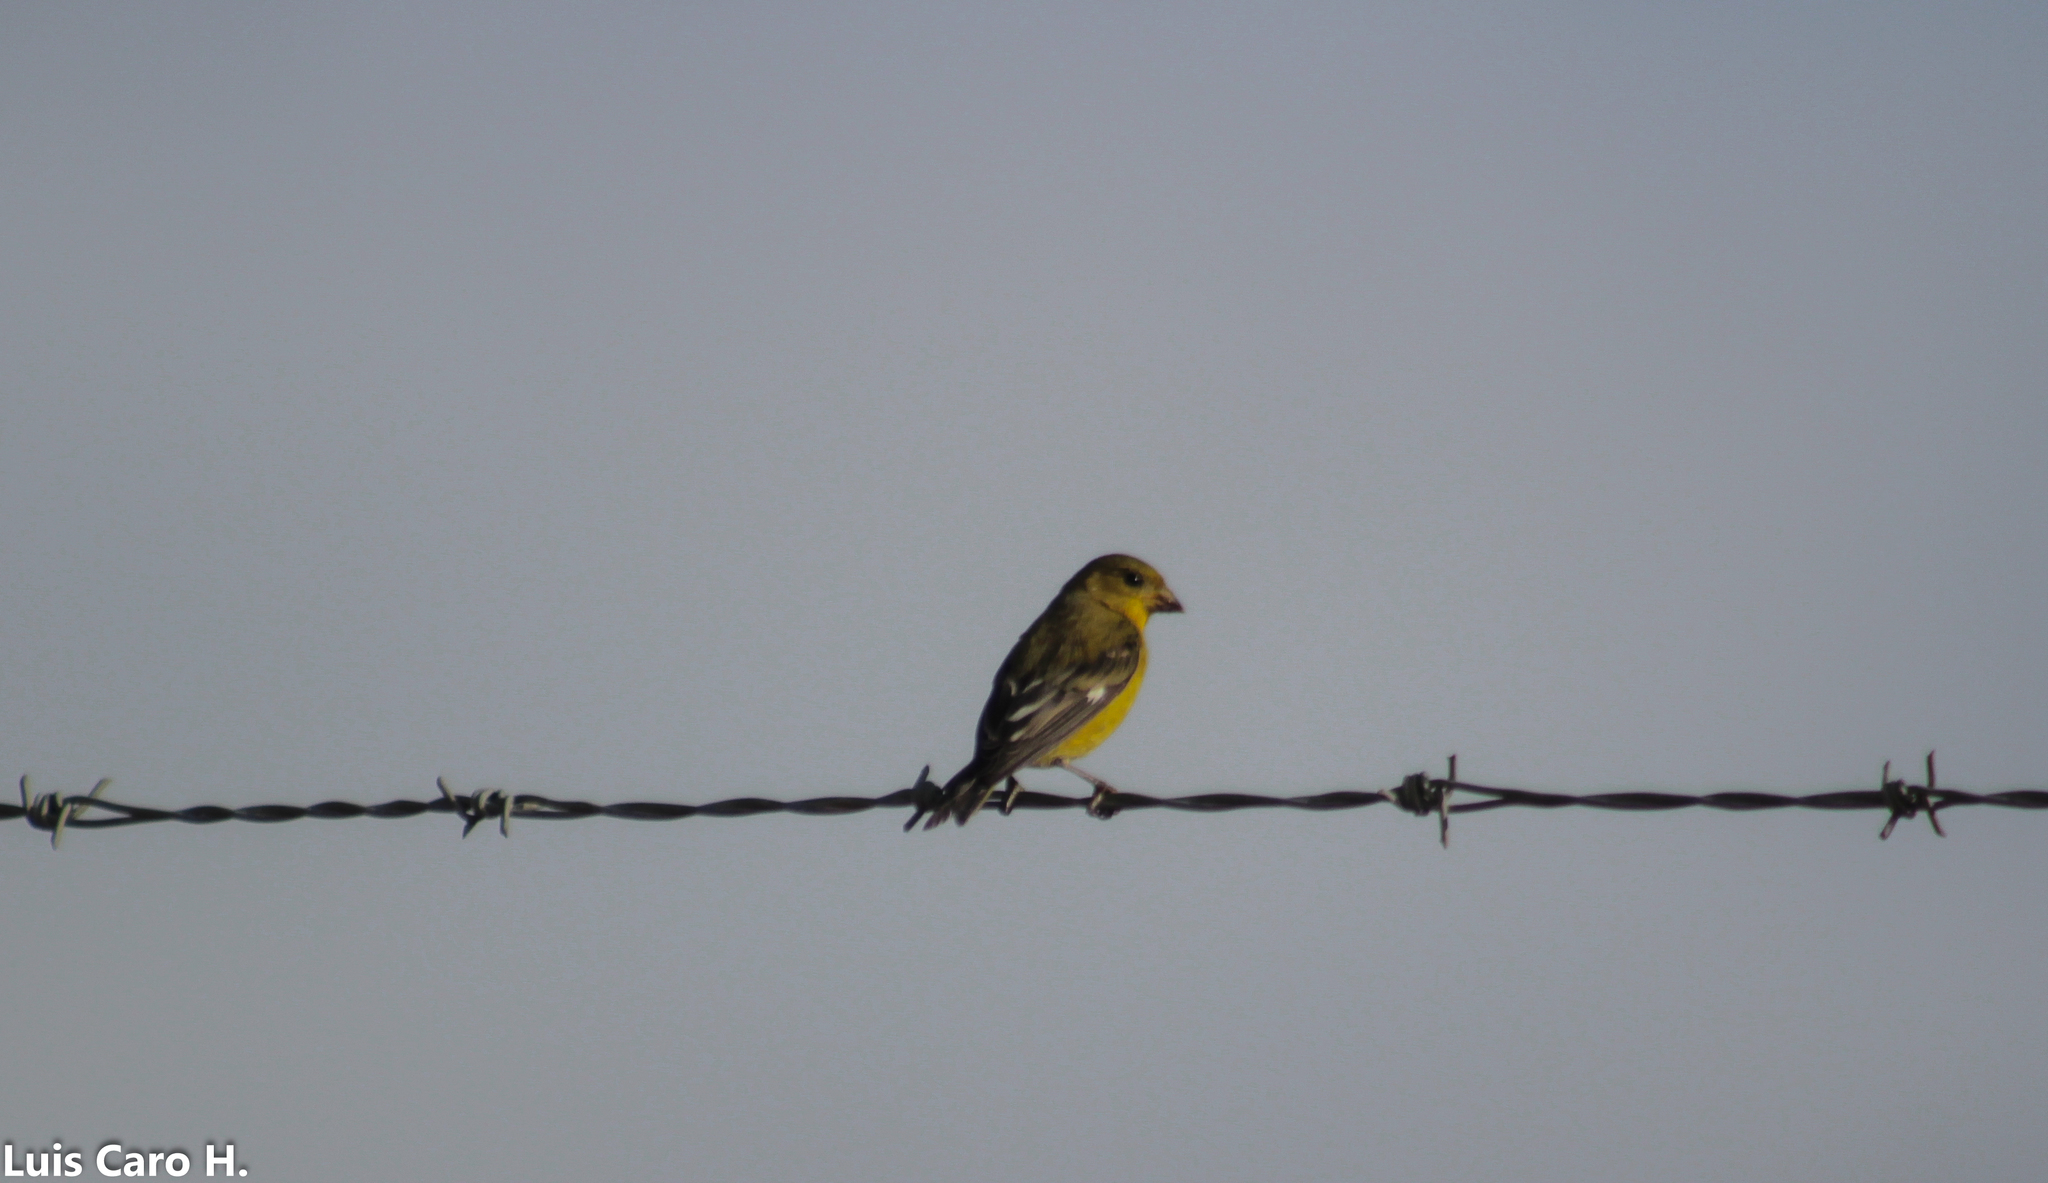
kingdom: Animalia
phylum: Chordata
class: Aves
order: Passeriformes
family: Fringillidae
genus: Spinus
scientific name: Spinus psaltria
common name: Lesser goldfinch
